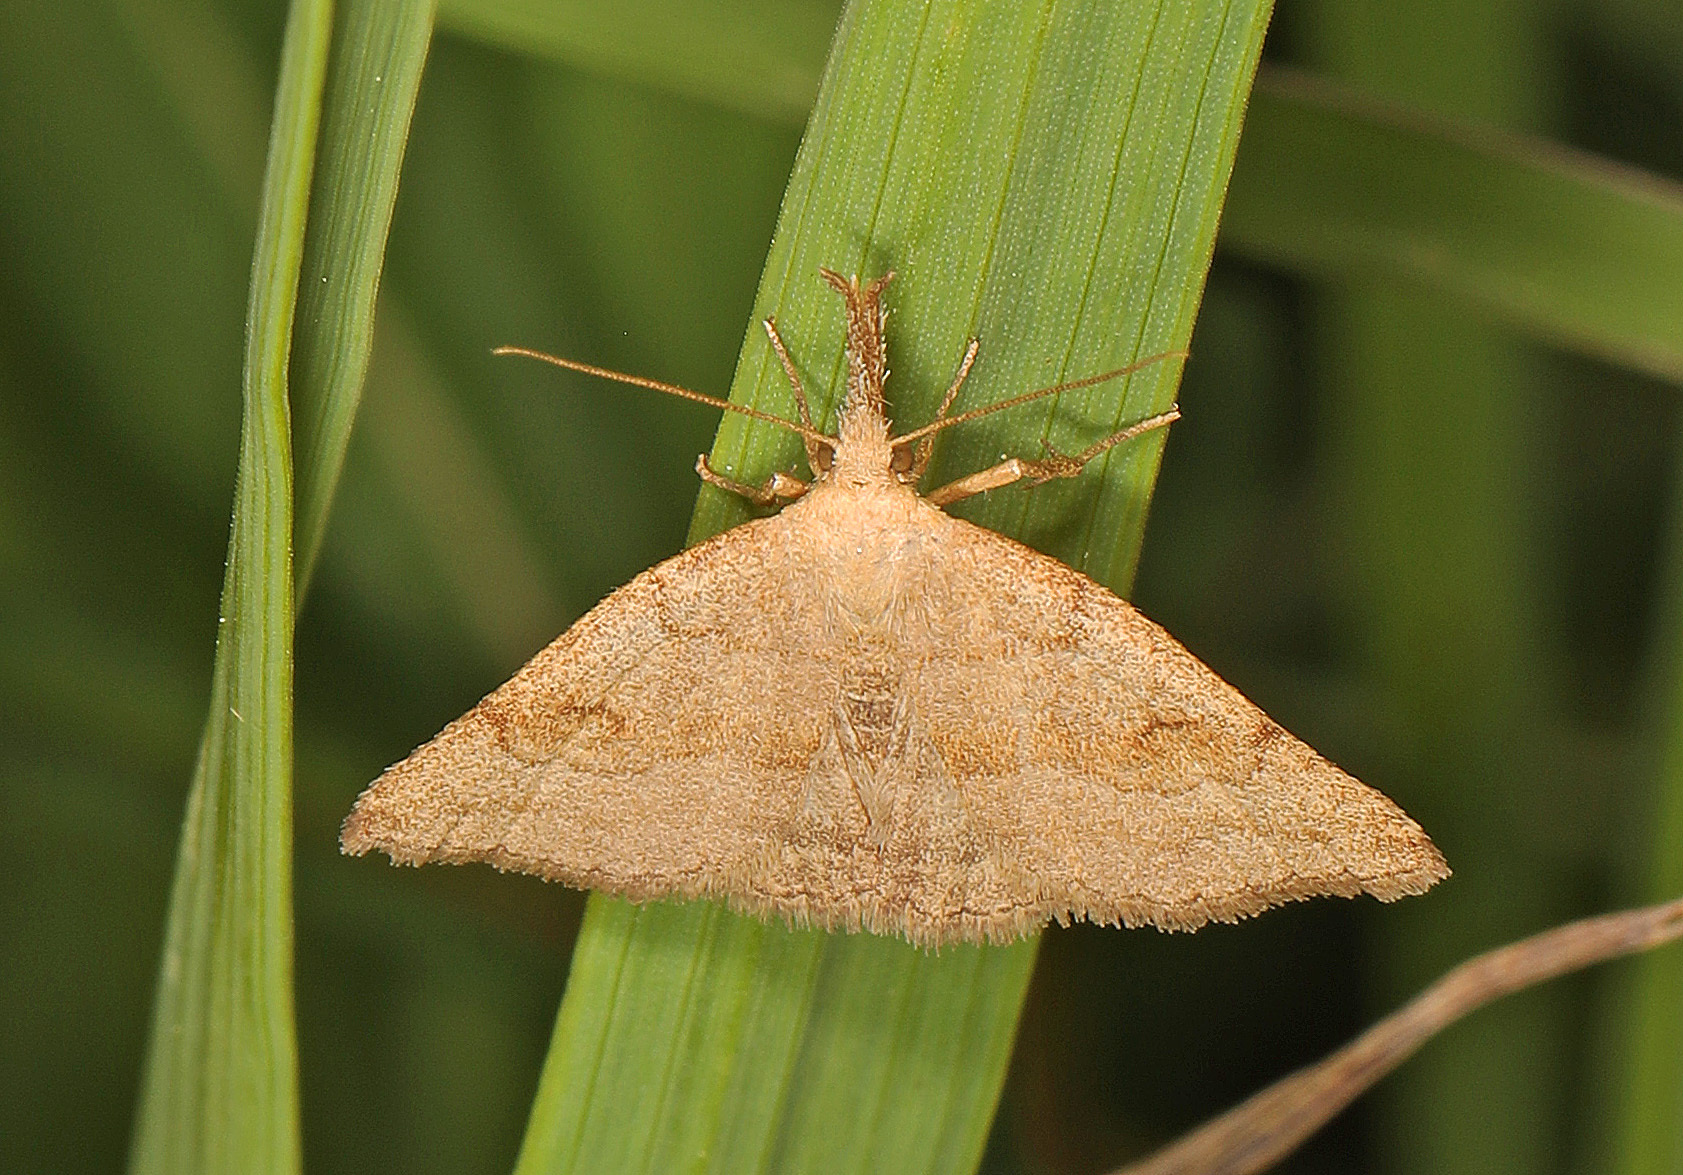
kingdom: Animalia
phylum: Arthropoda
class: Insecta
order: Lepidoptera
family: Erebidae
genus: Phalaenostola
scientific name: Phalaenostola metonalis
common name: Pale phalaenostola moth
